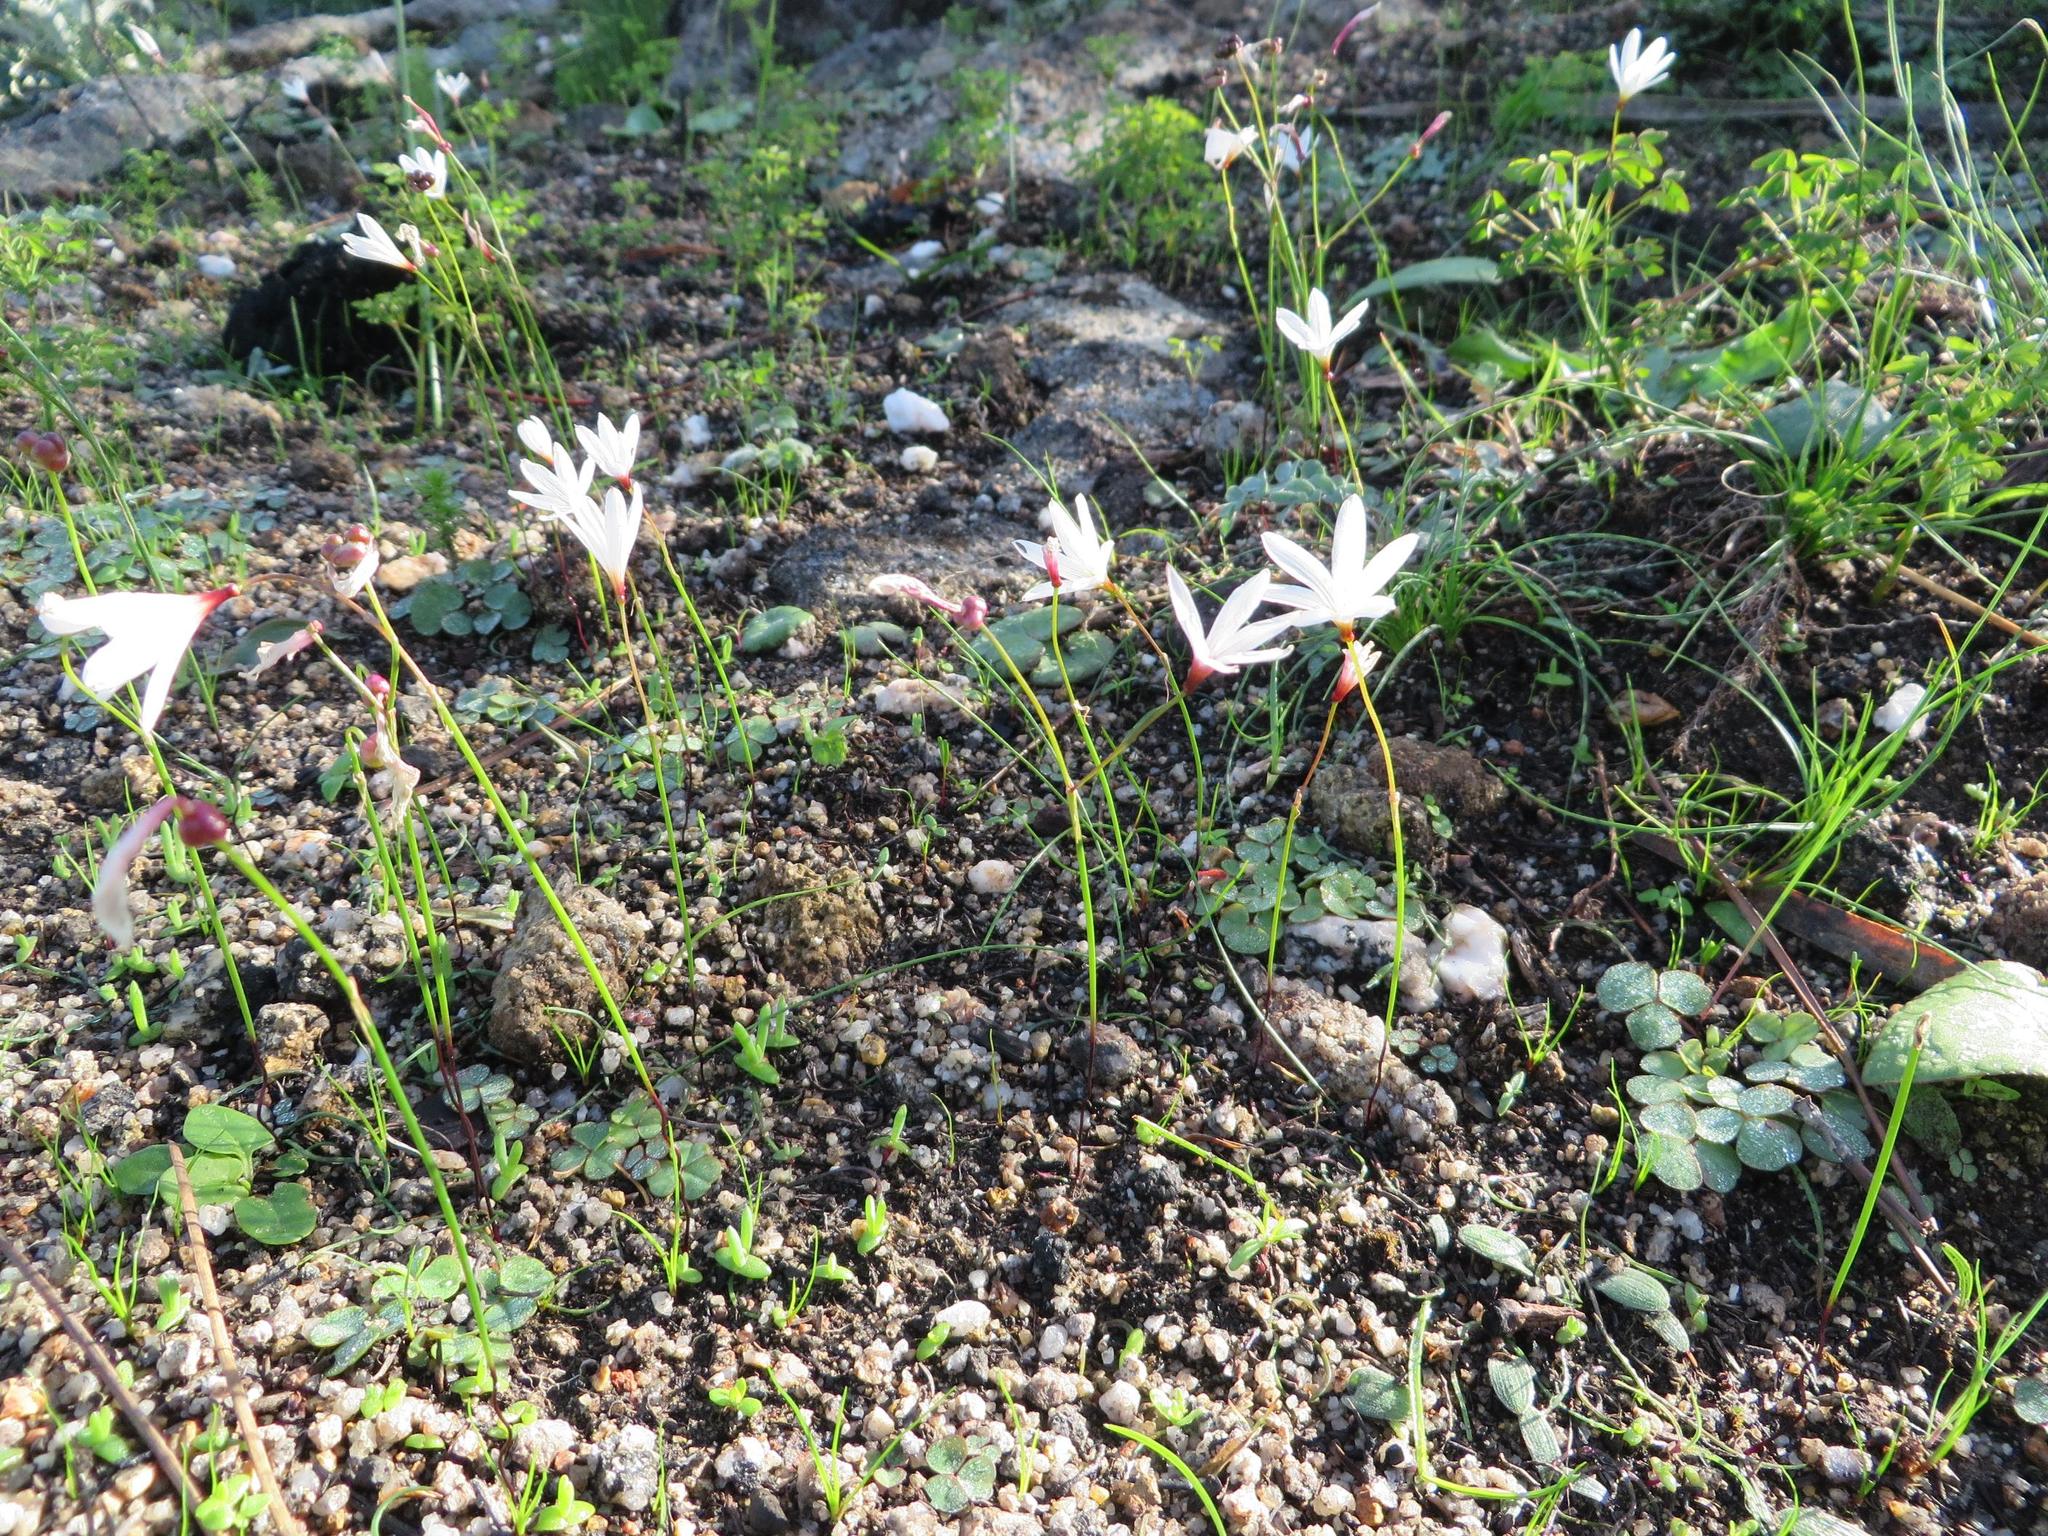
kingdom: Plantae
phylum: Tracheophyta
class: Liliopsida
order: Asparagales
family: Amaryllidaceae
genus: Strumaria
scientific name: Strumaria spiralis
